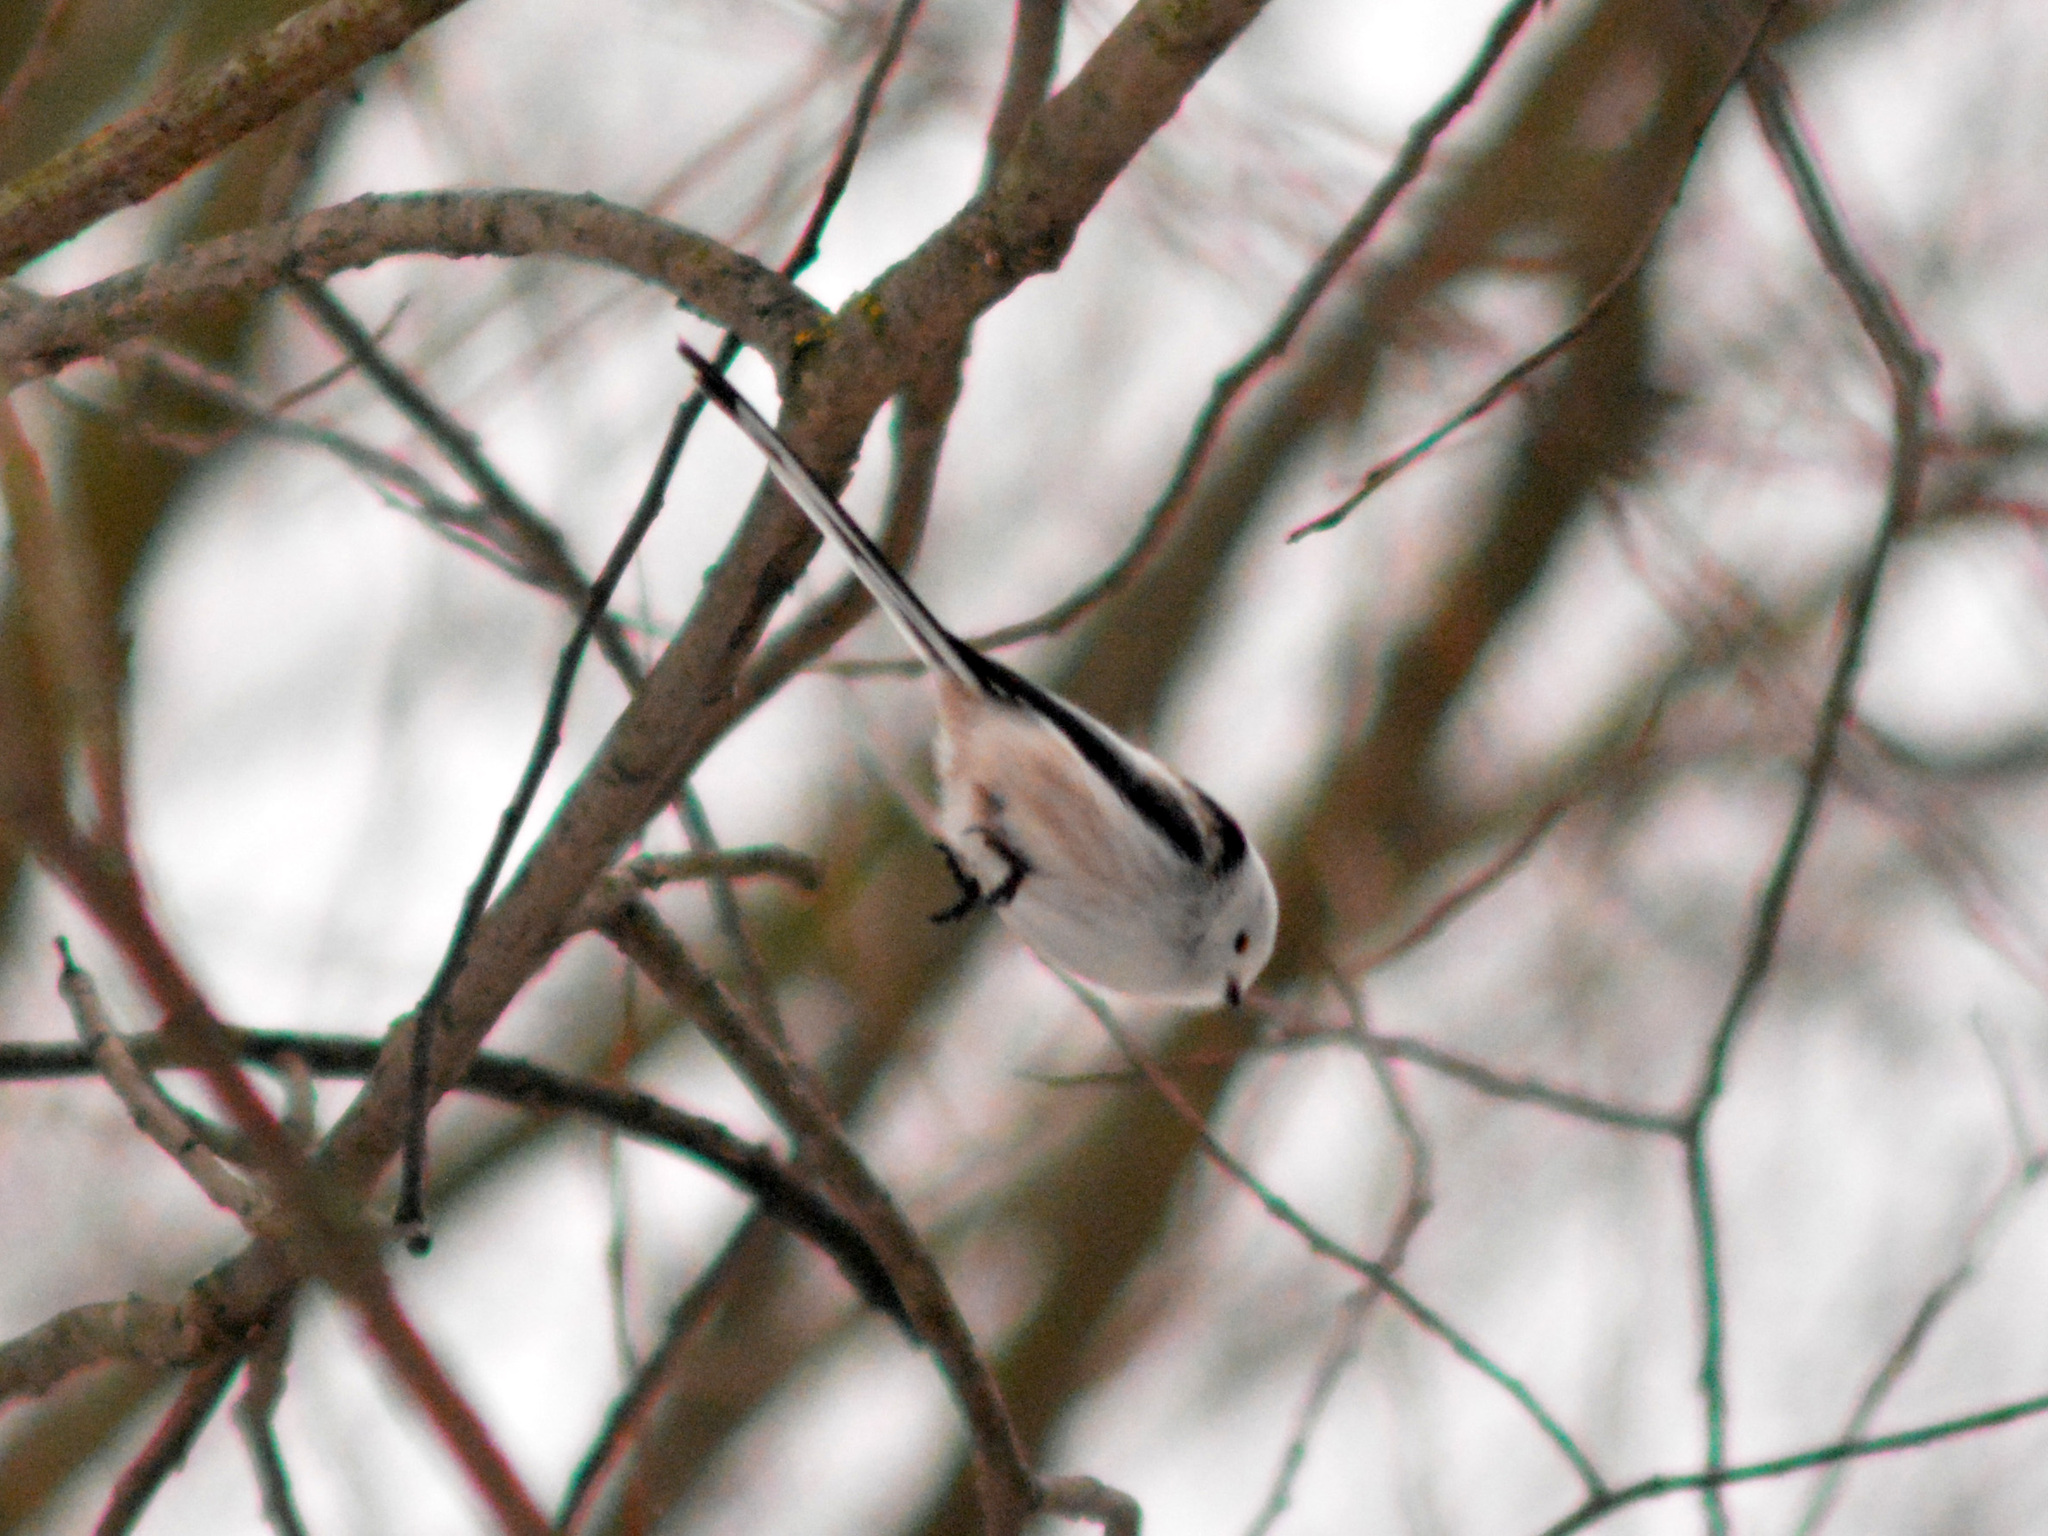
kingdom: Animalia
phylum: Chordata
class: Aves
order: Passeriformes
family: Aegithalidae
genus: Aegithalos
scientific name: Aegithalos caudatus
